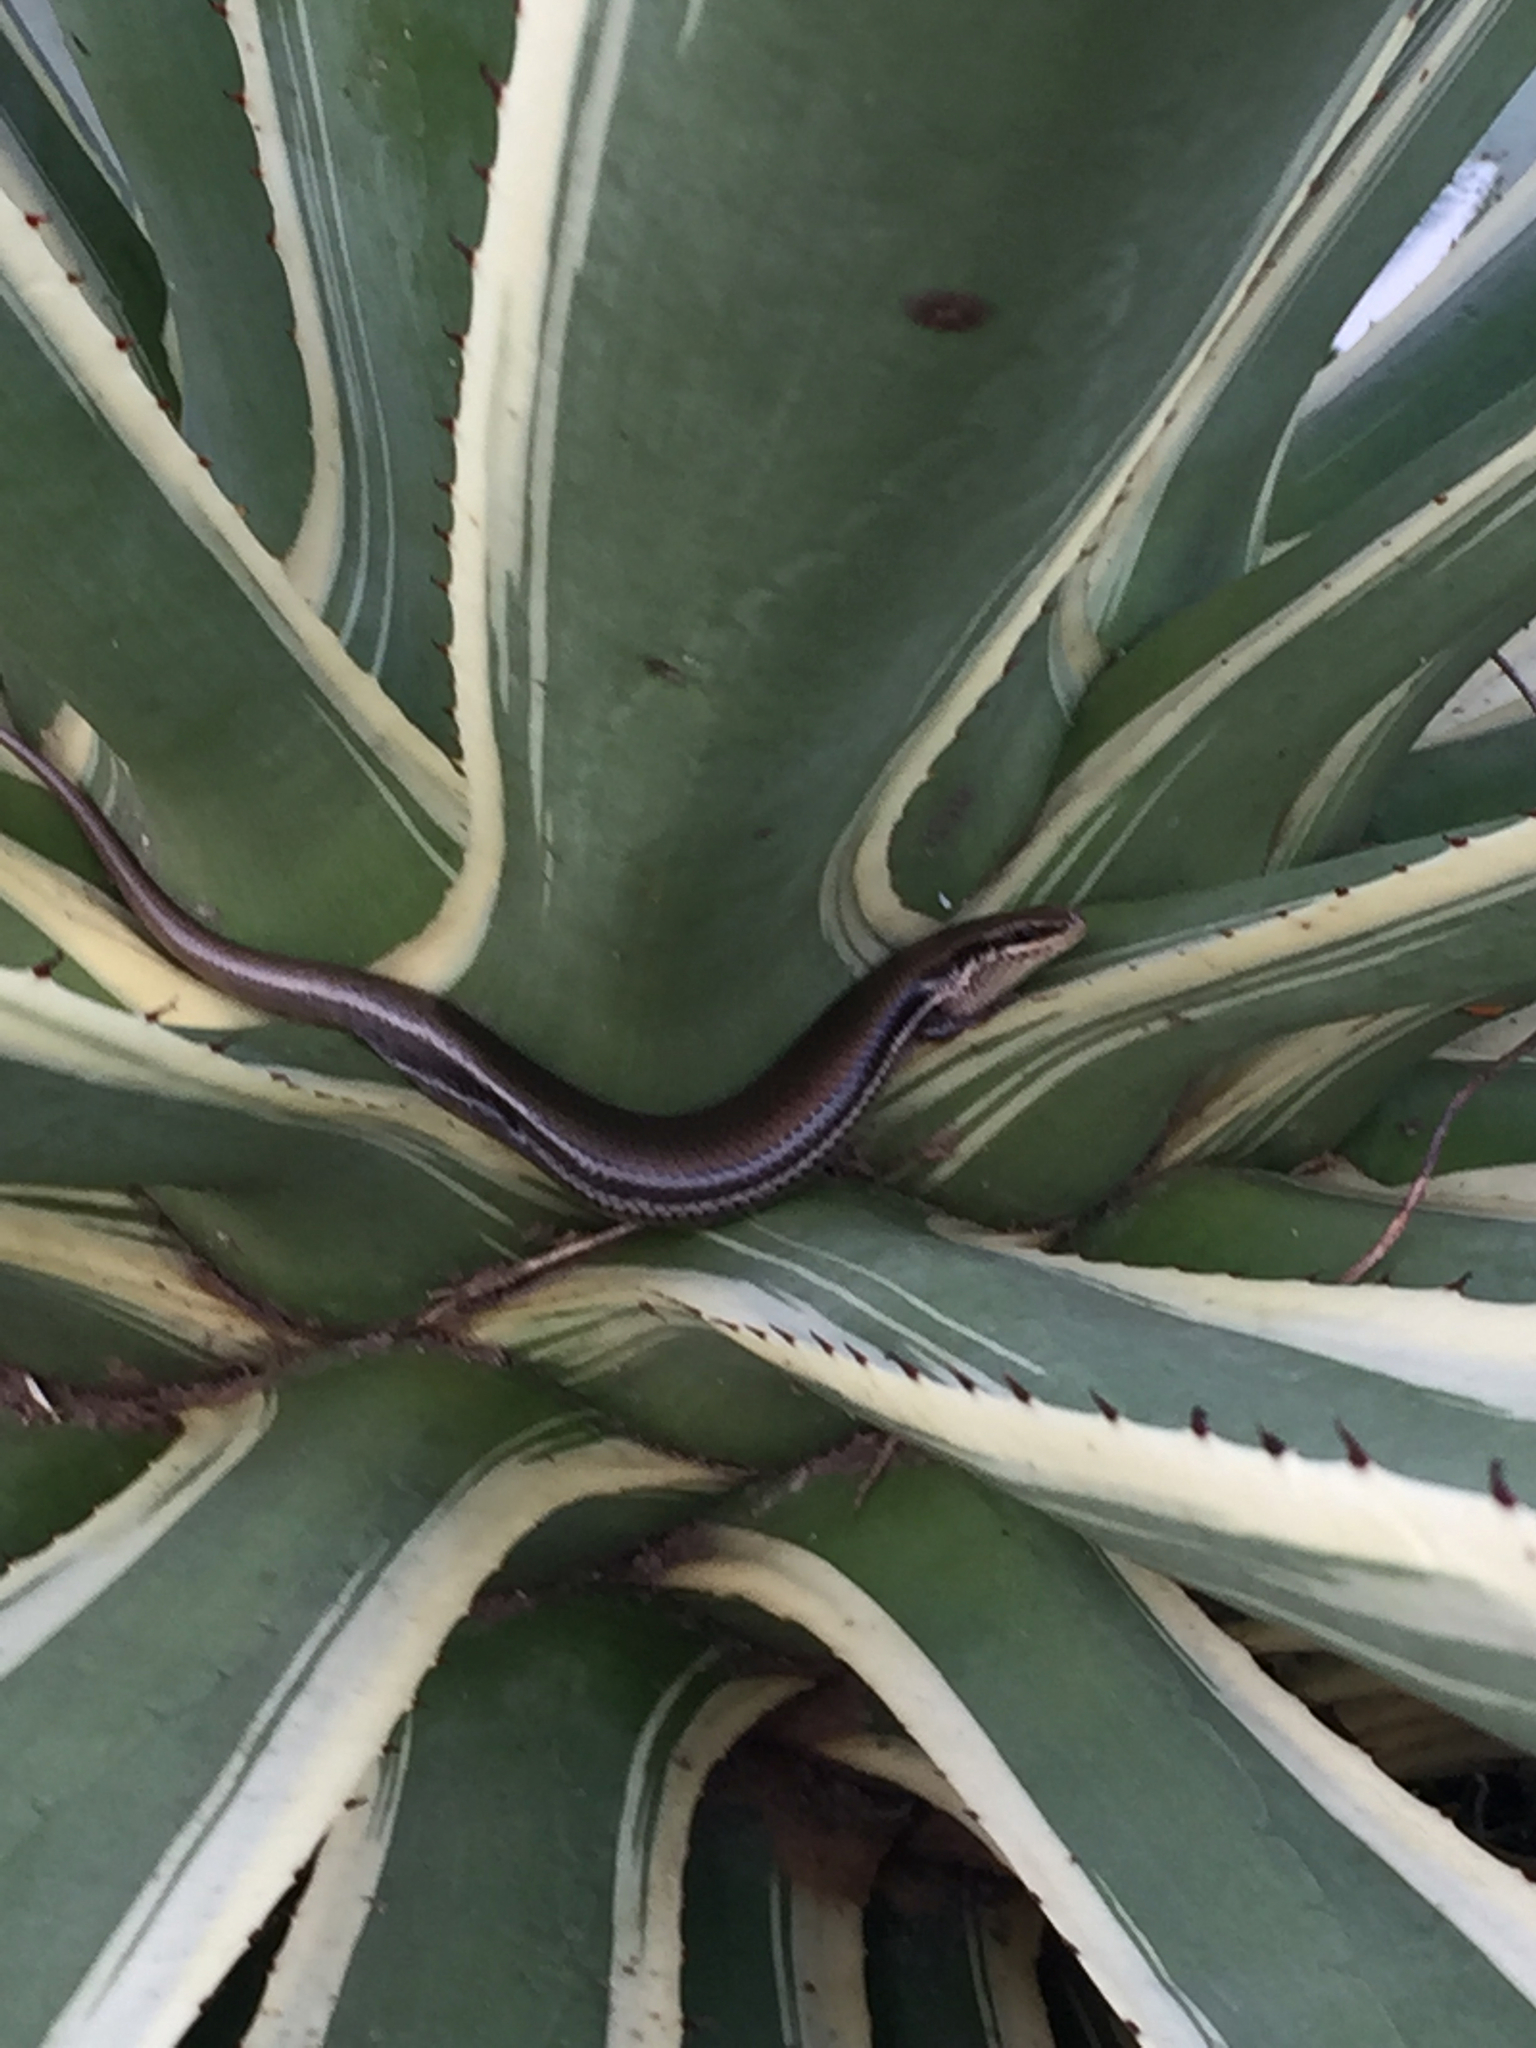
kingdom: Animalia
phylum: Chordata
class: Squamata
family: Scincidae
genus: Marisora
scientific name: Marisora brachypoda
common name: Western middle america skink
